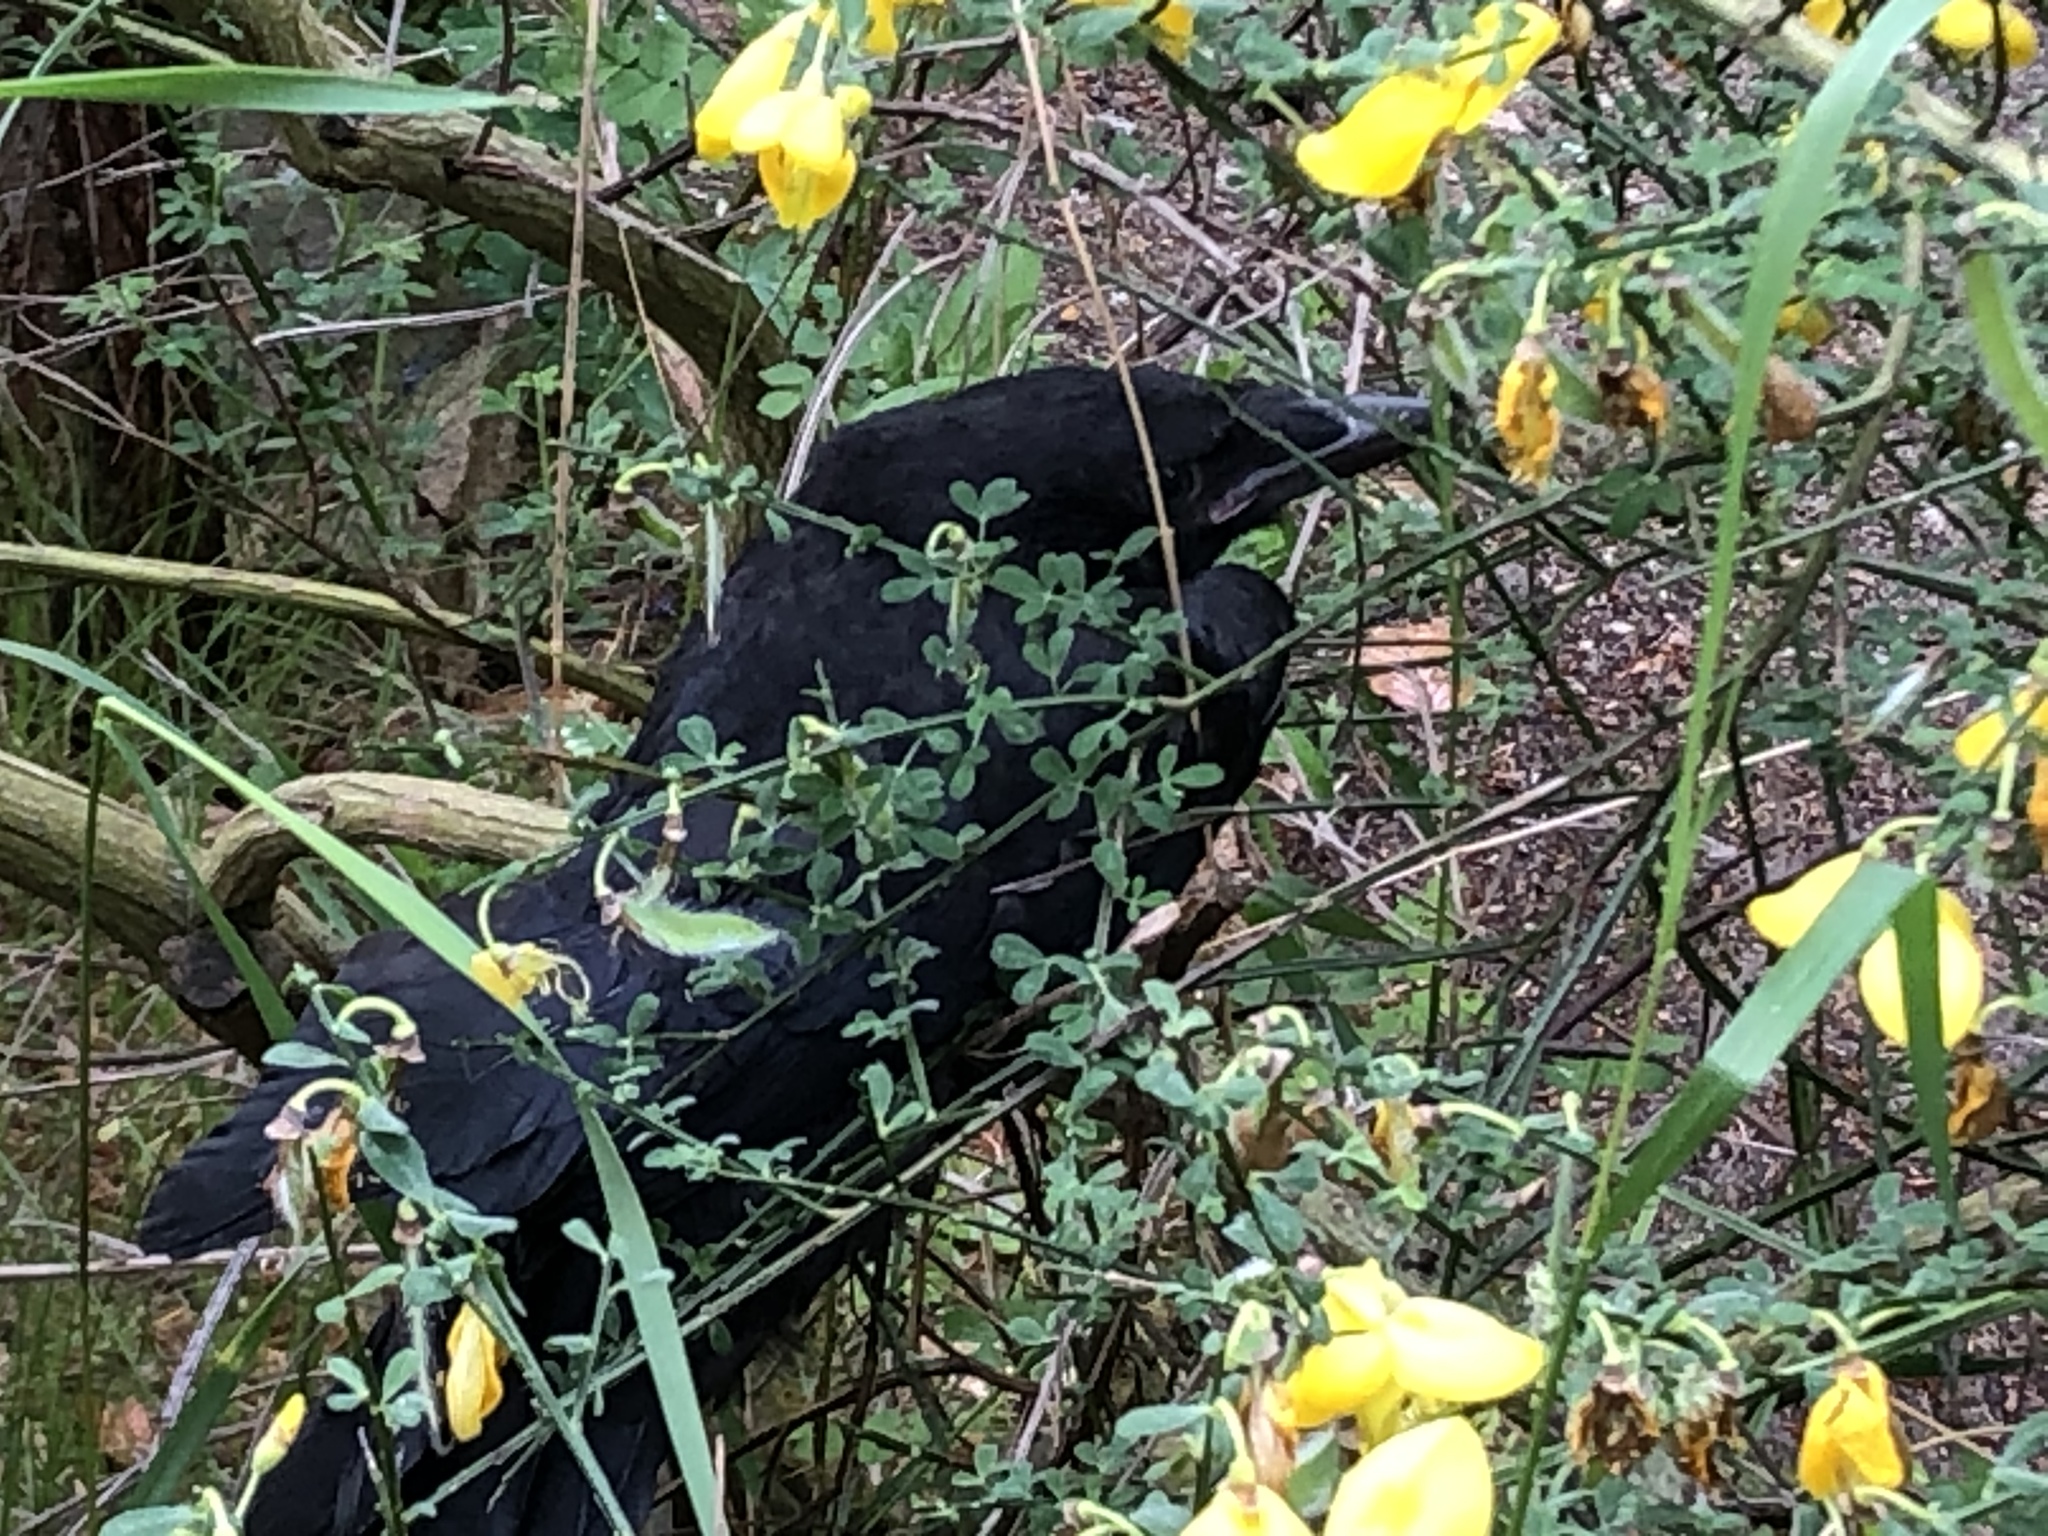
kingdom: Animalia
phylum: Chordata
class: Aves
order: Passeriformes
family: Corvidae
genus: Corvus
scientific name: Corvus corone
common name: Carrion crow
